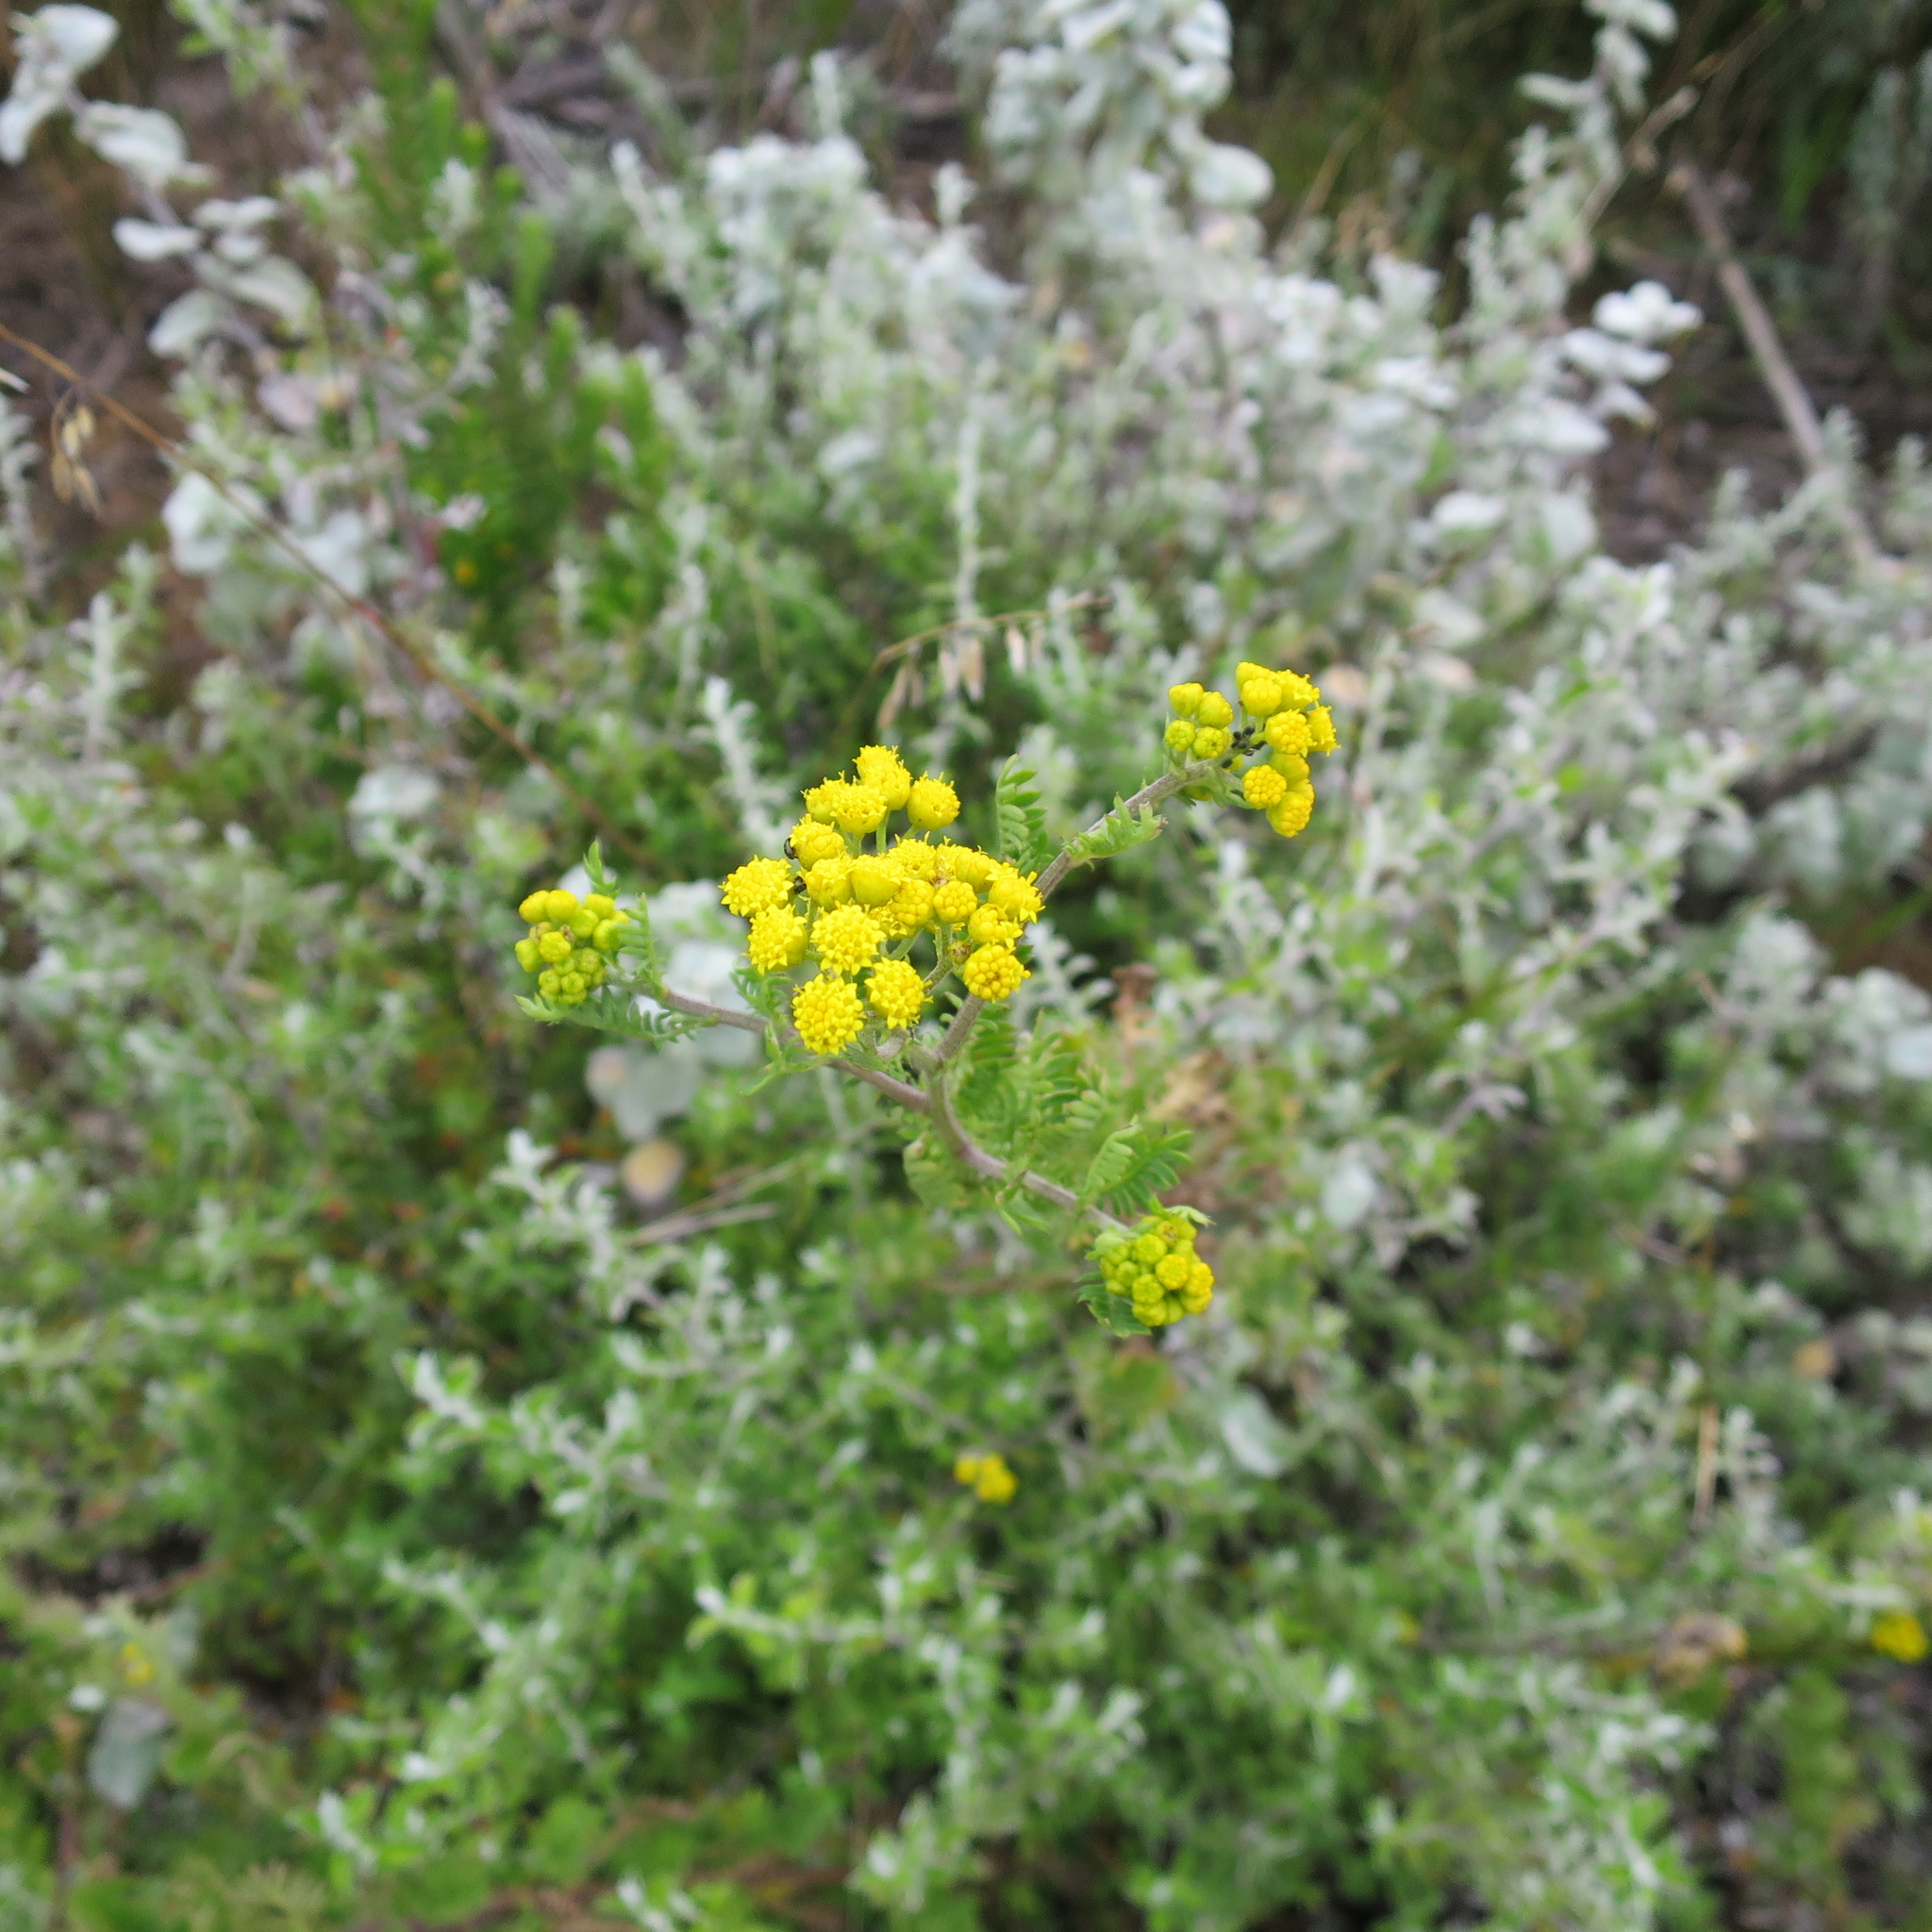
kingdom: Plantae
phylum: Tracheophyta
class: Magnoliopsida
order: Asterales
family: Asteraceae
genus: Hippia
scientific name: Hippia frutescens
